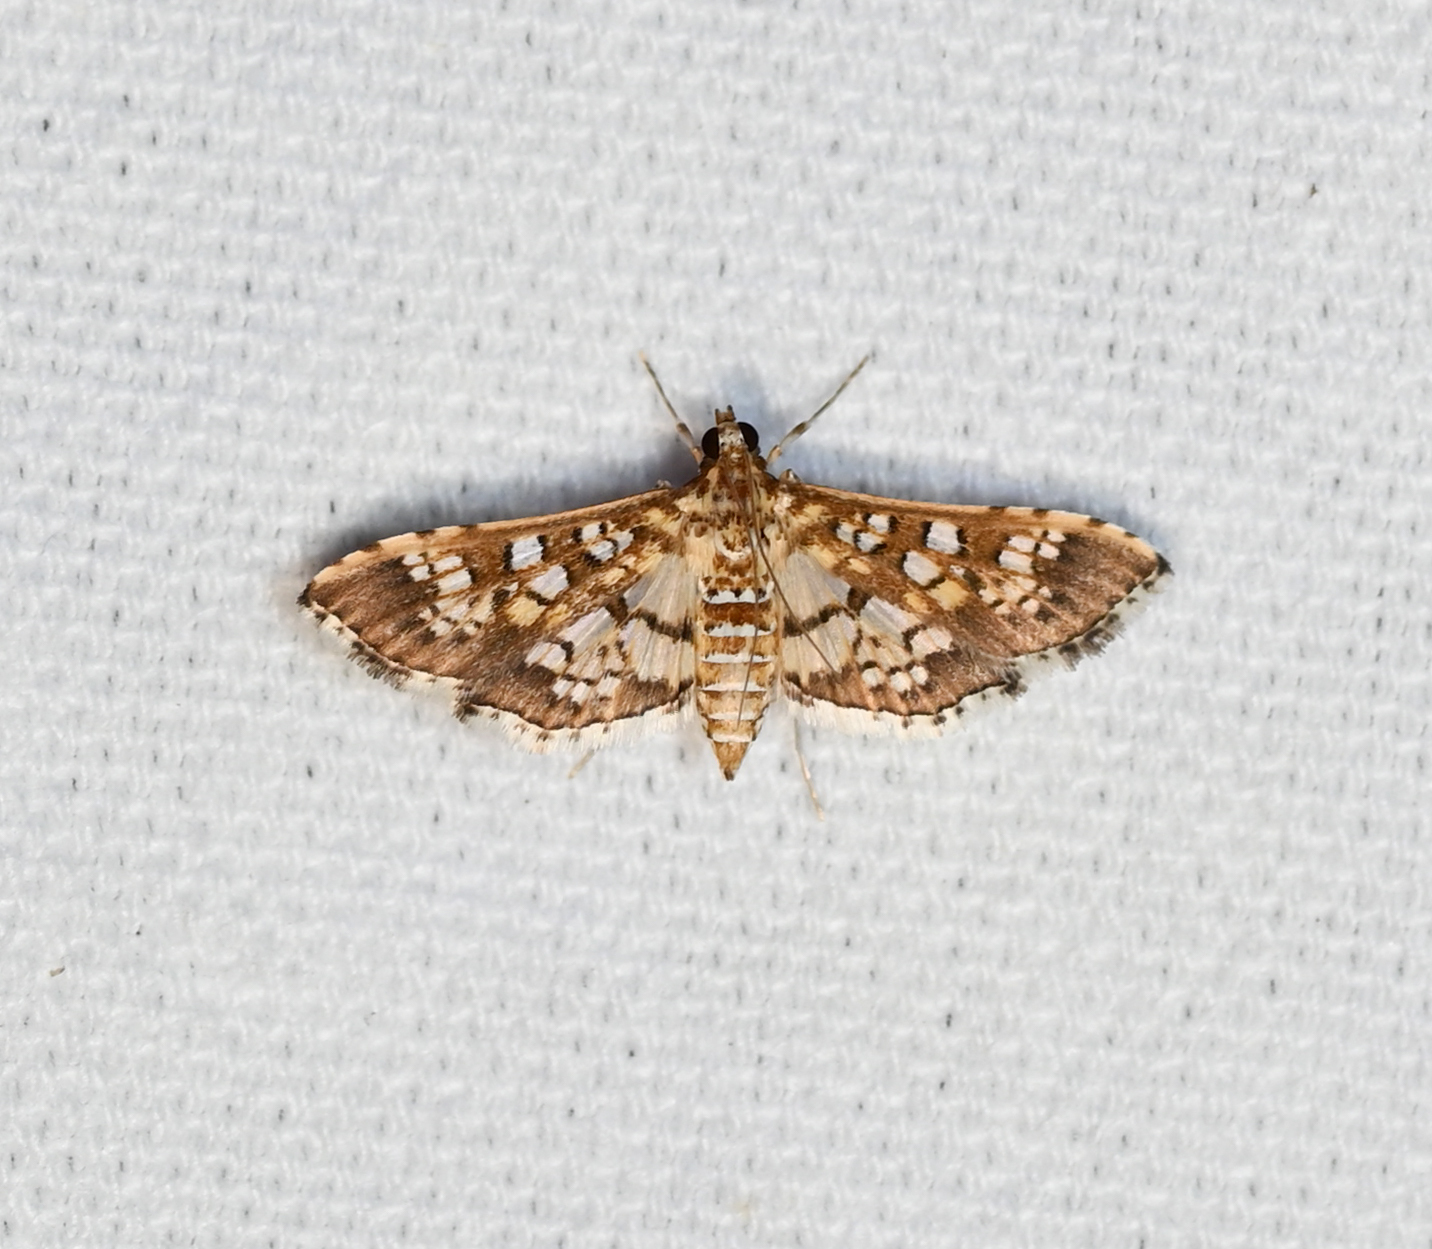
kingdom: Animalia
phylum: Arthropoda
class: Insecta
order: Lepidoptera
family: Crambidae
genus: Samea
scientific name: Samea ecclesialis
